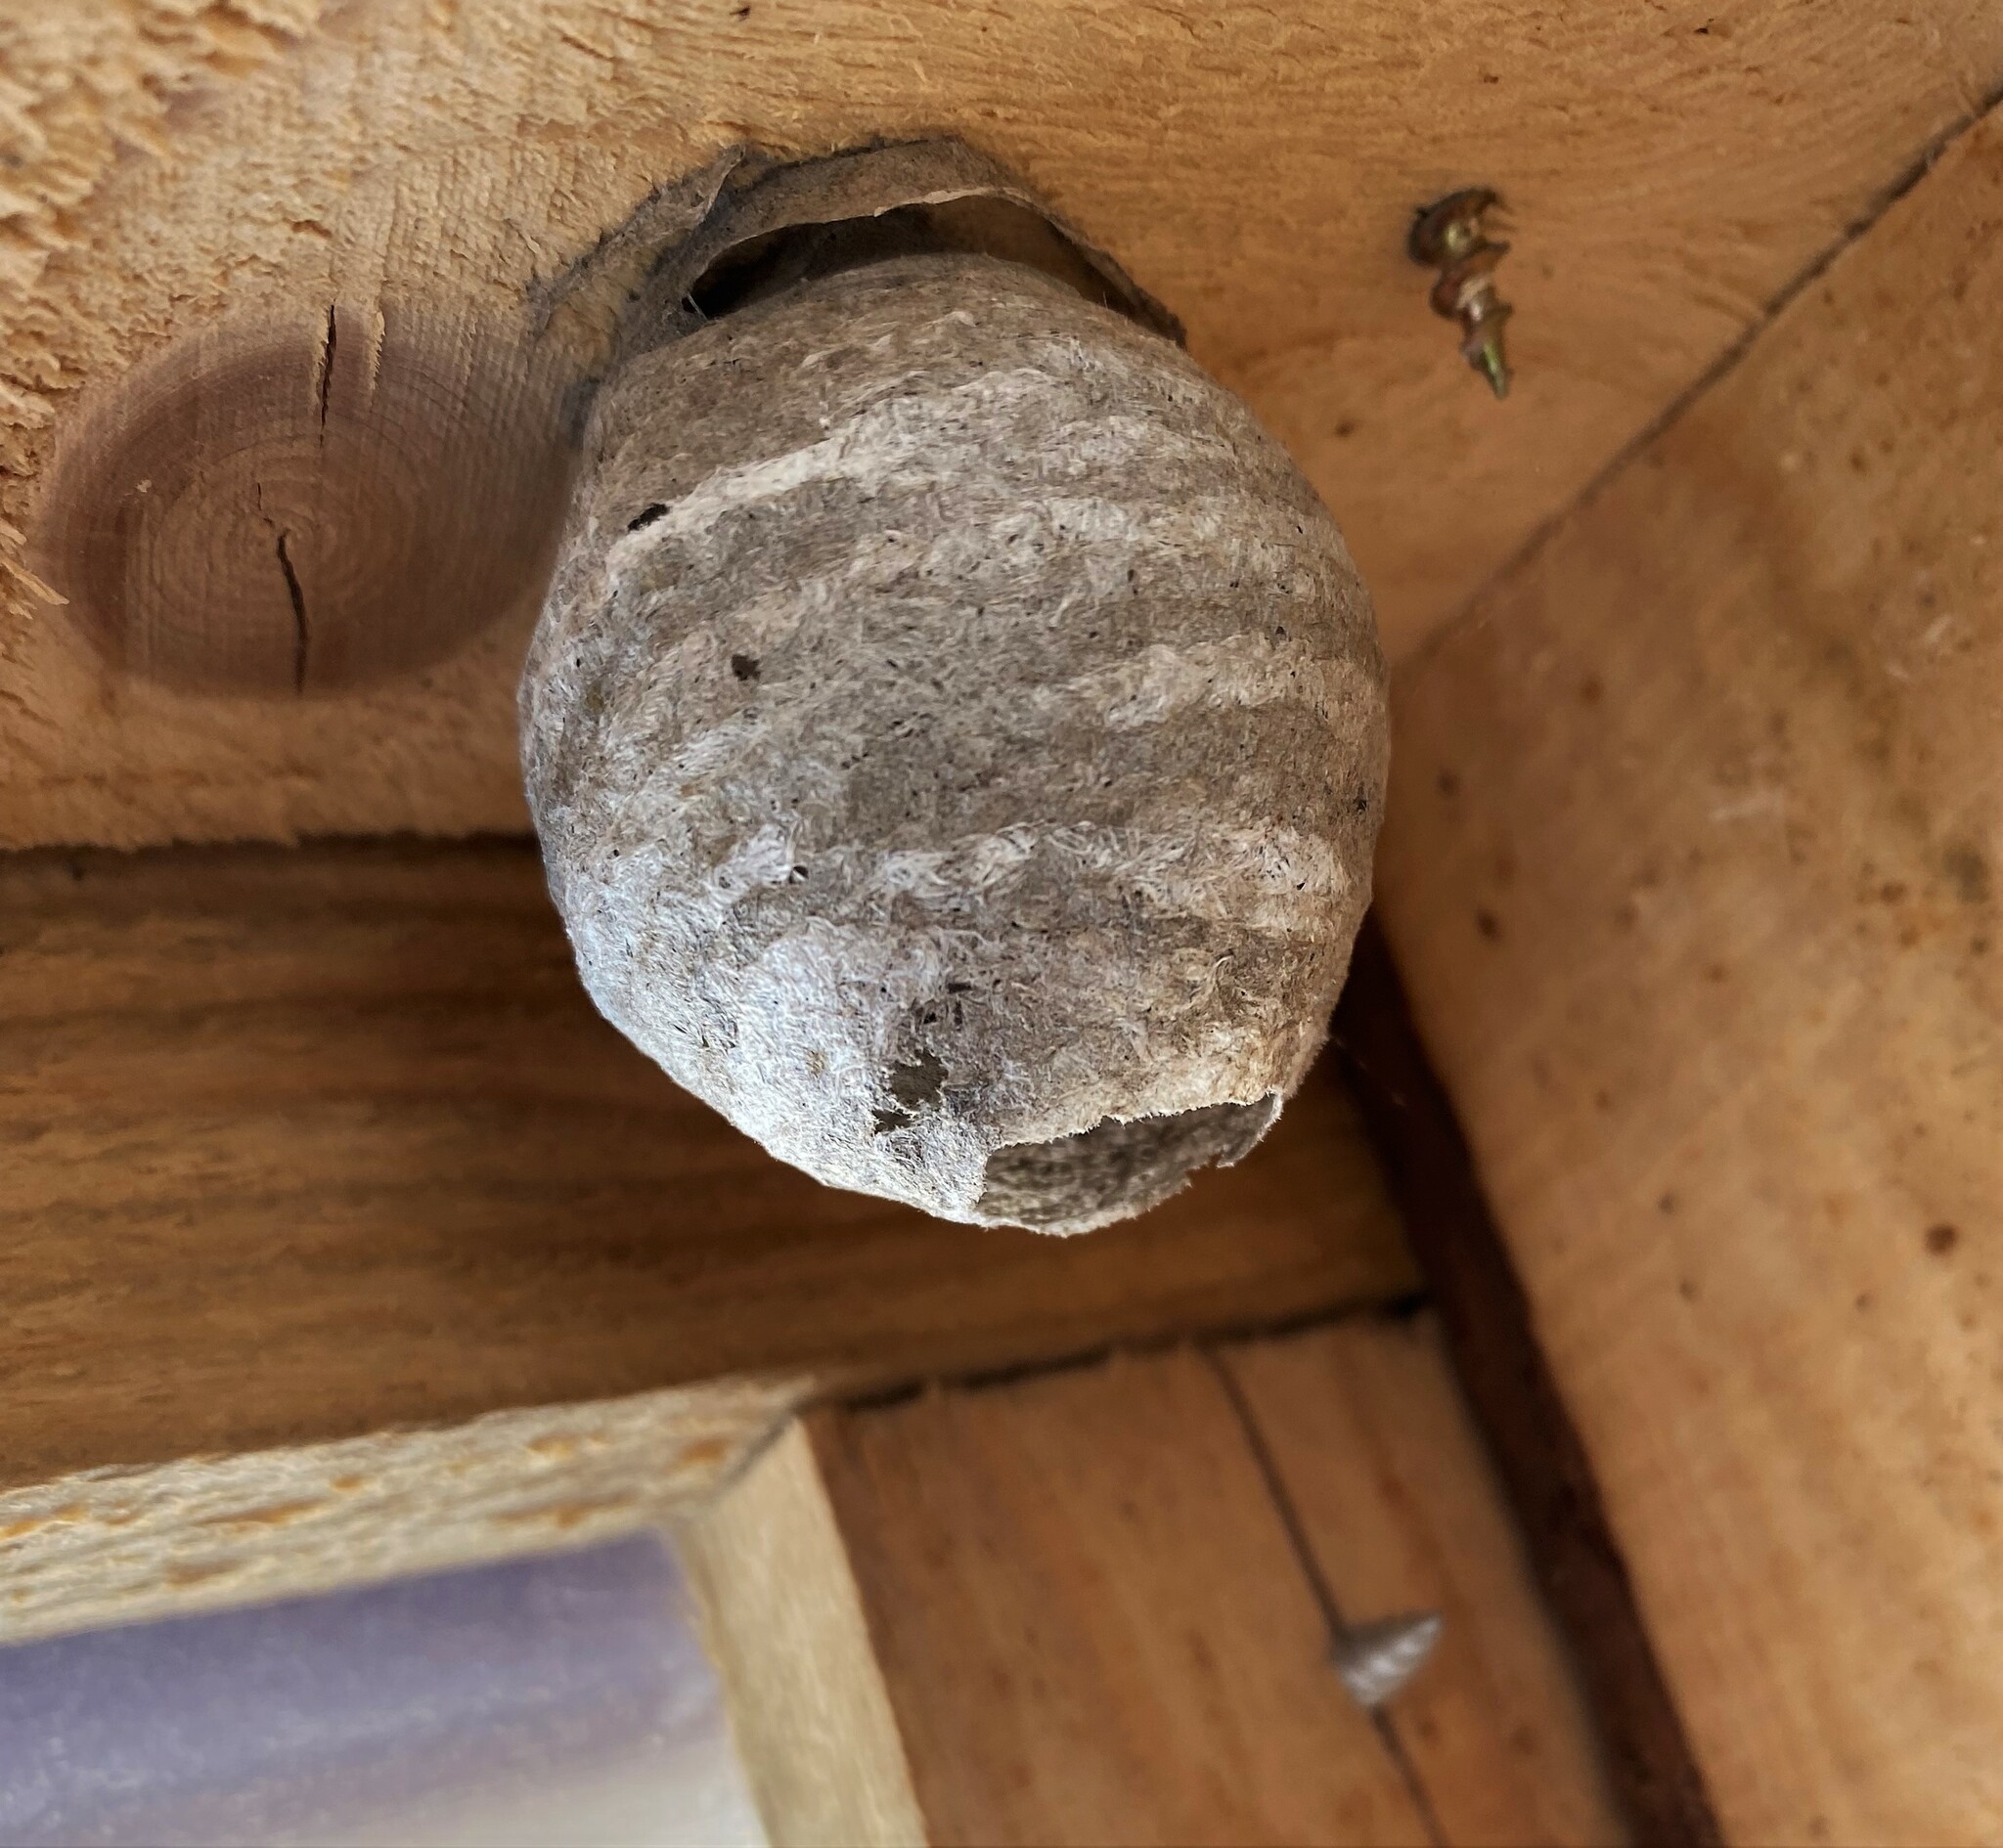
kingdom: Animalia
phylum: Arthropoda
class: Insecta
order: Hymenoptera
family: Vespidae
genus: Dolichovespula
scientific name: Dolichovespula
